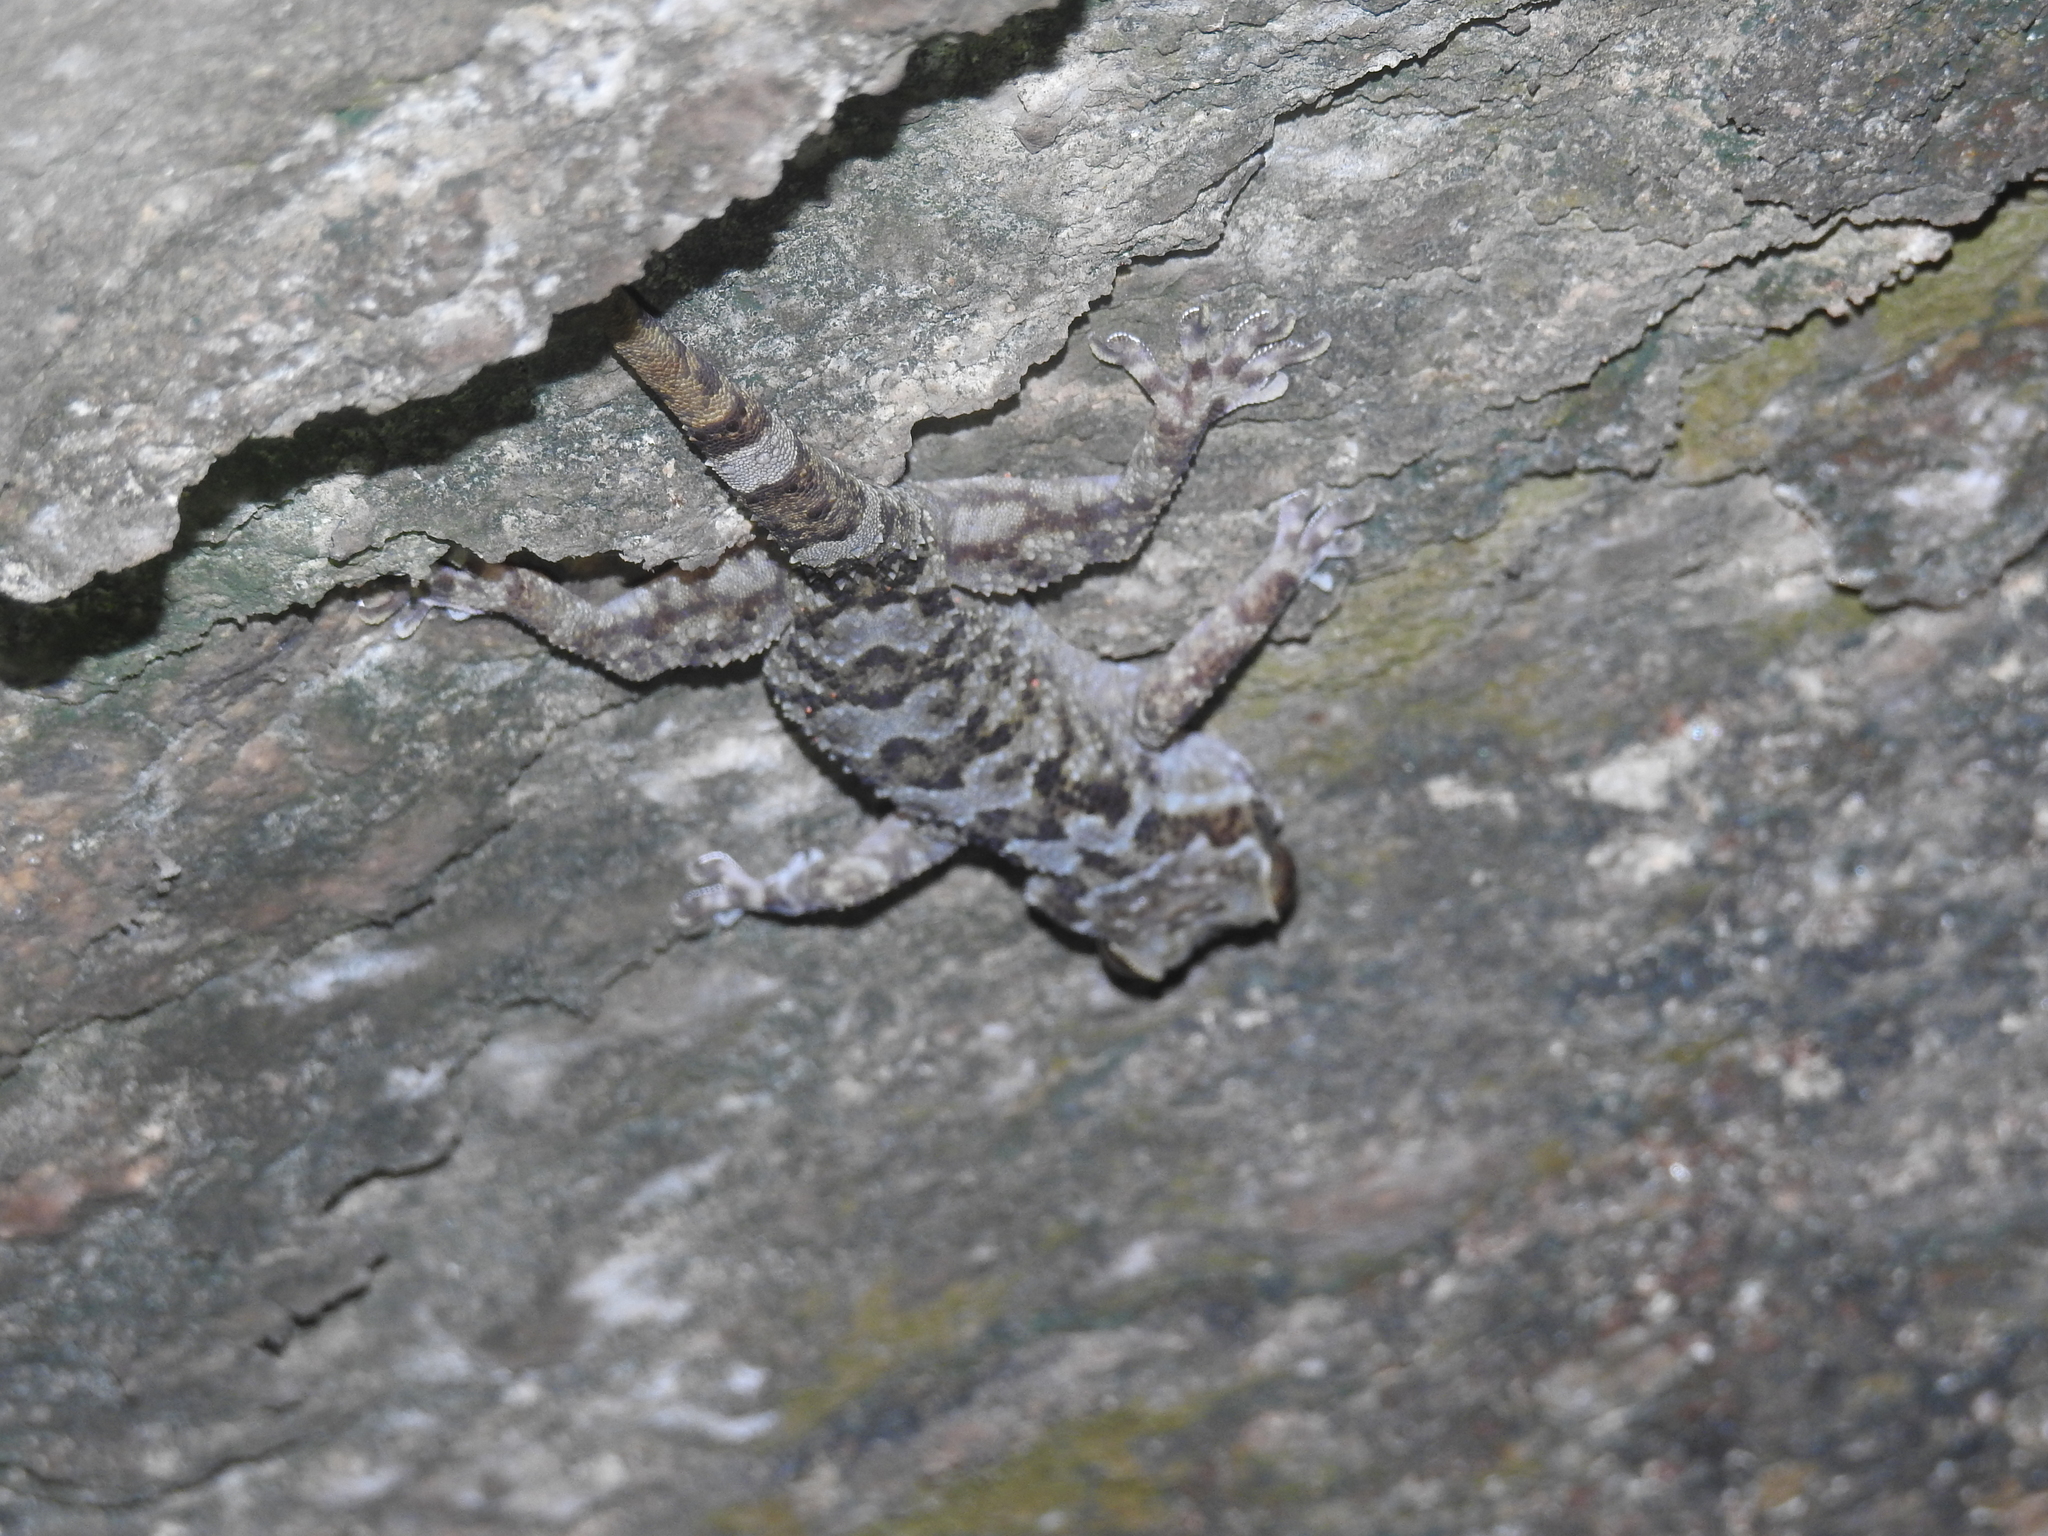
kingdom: Animalia
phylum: Chordata
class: Squamata
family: Gekkonidae
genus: Hemidactylus
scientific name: Hemidactylus graniticolus
